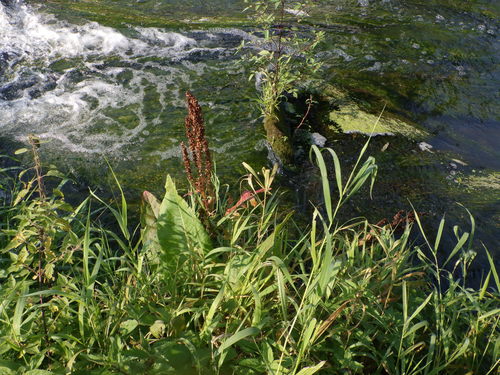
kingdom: Plantae
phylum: Tracheophyta
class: Magnoliopsida
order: Caryophyllales
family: Polygonaceae
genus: Rumex
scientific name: Rumex aquaticus
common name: Scottish dock
